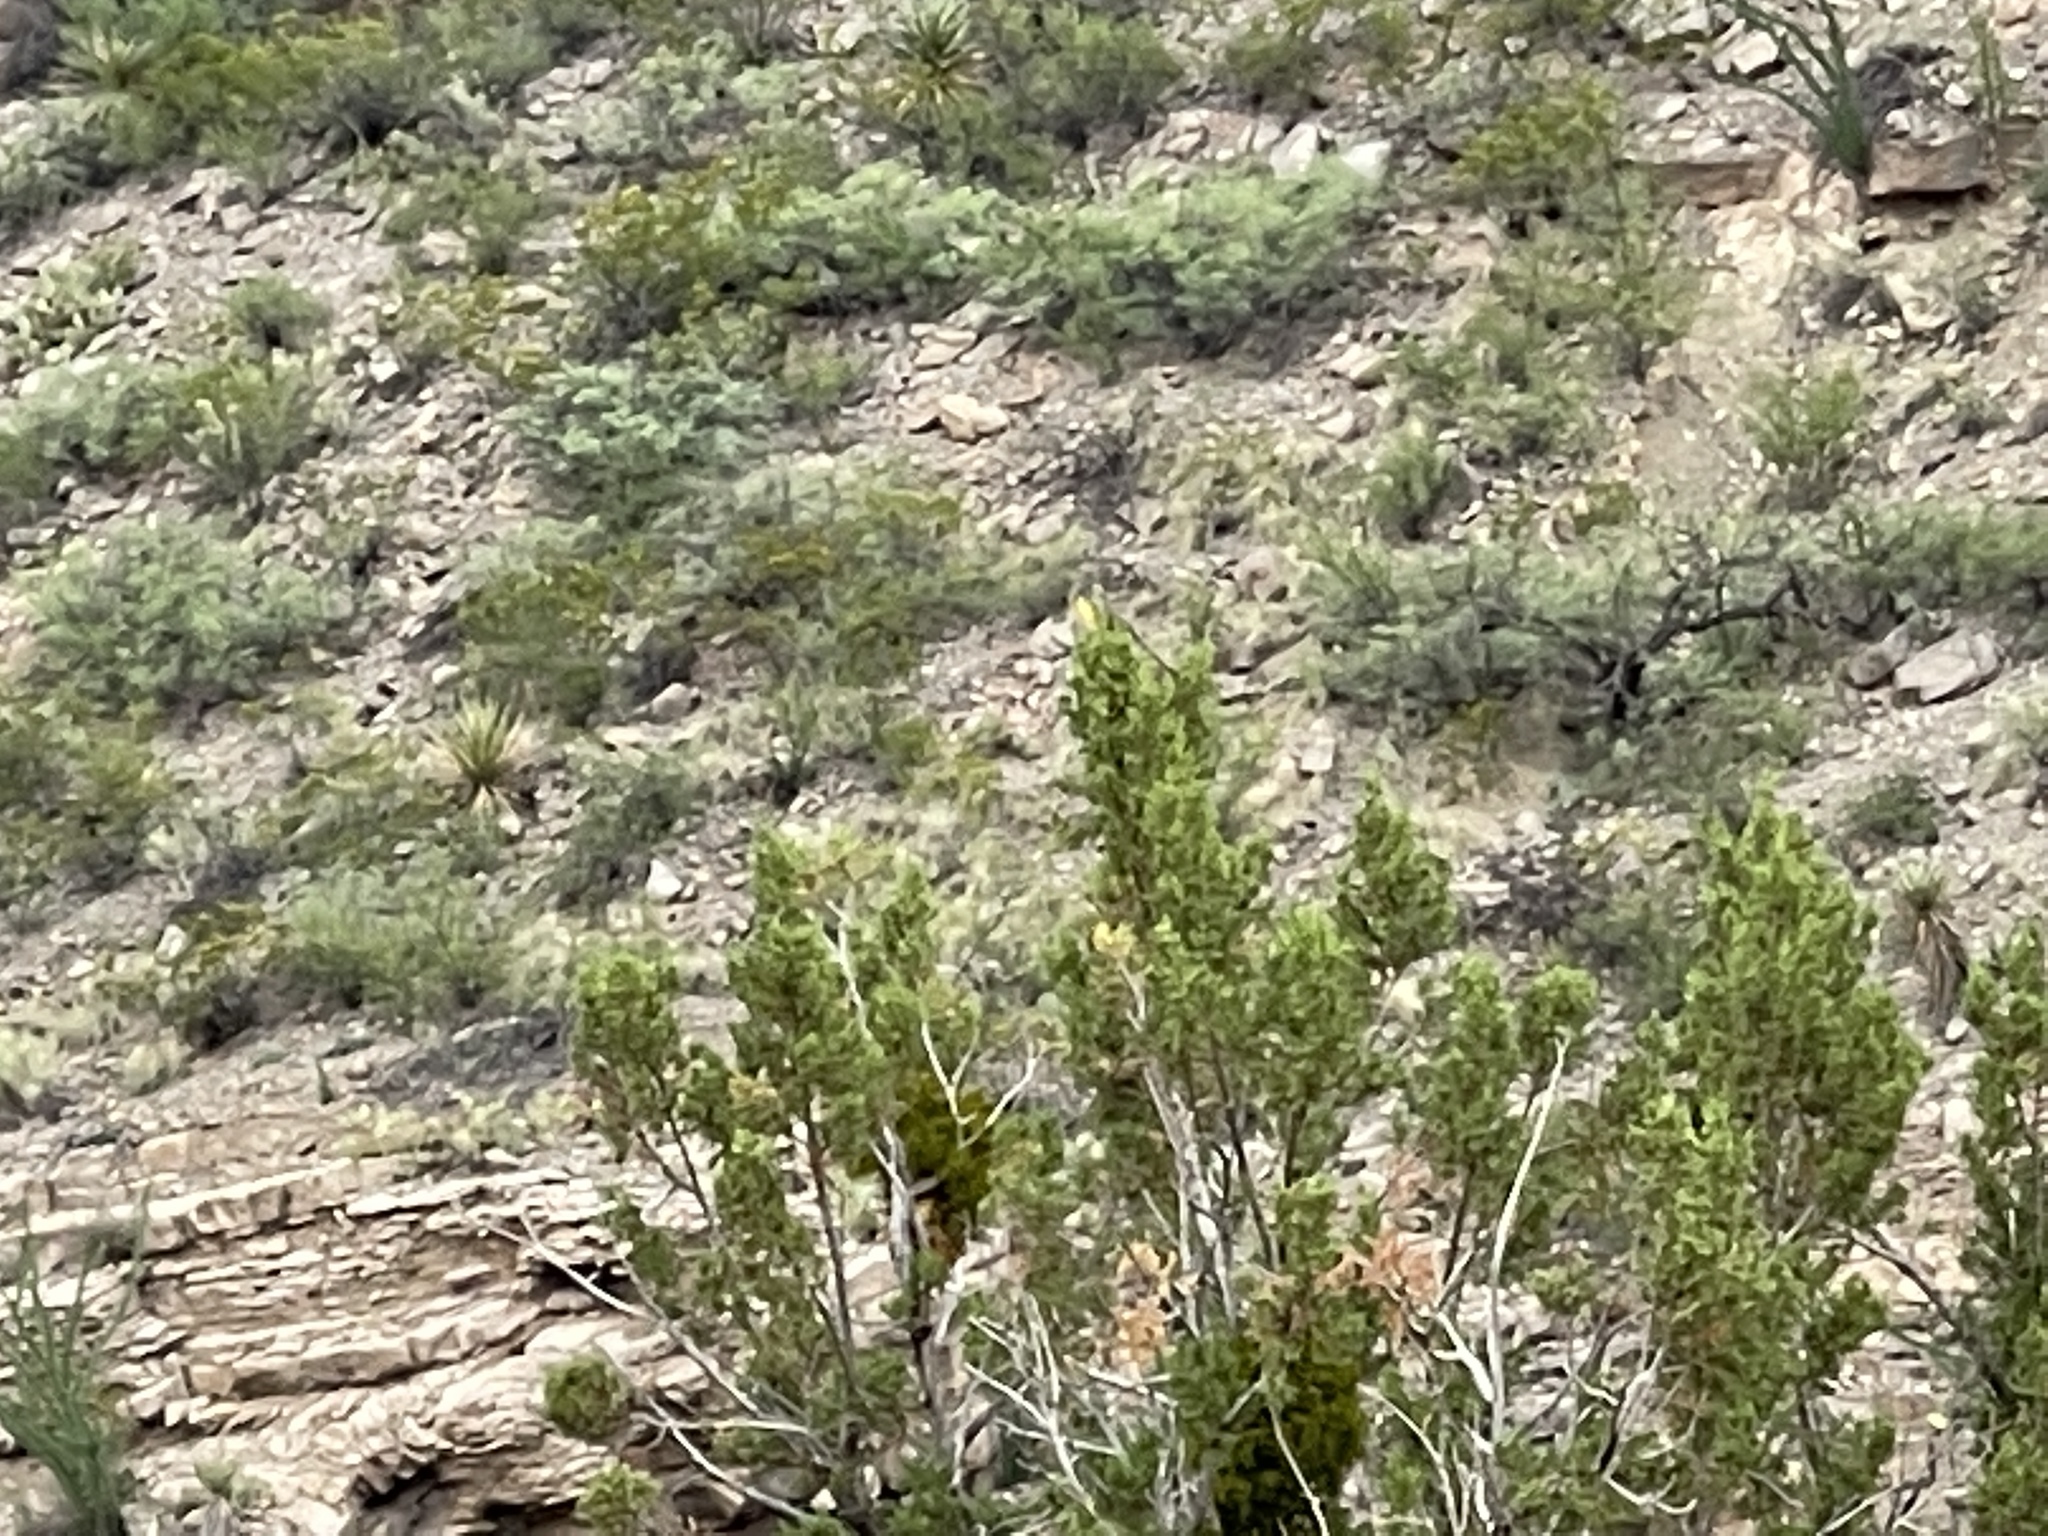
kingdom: Plantae
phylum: Tracheophyta
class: Magnoliopsida
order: Zygophyllales
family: Zygophyllaceae
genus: Larrea
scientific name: Larrea tridentata
